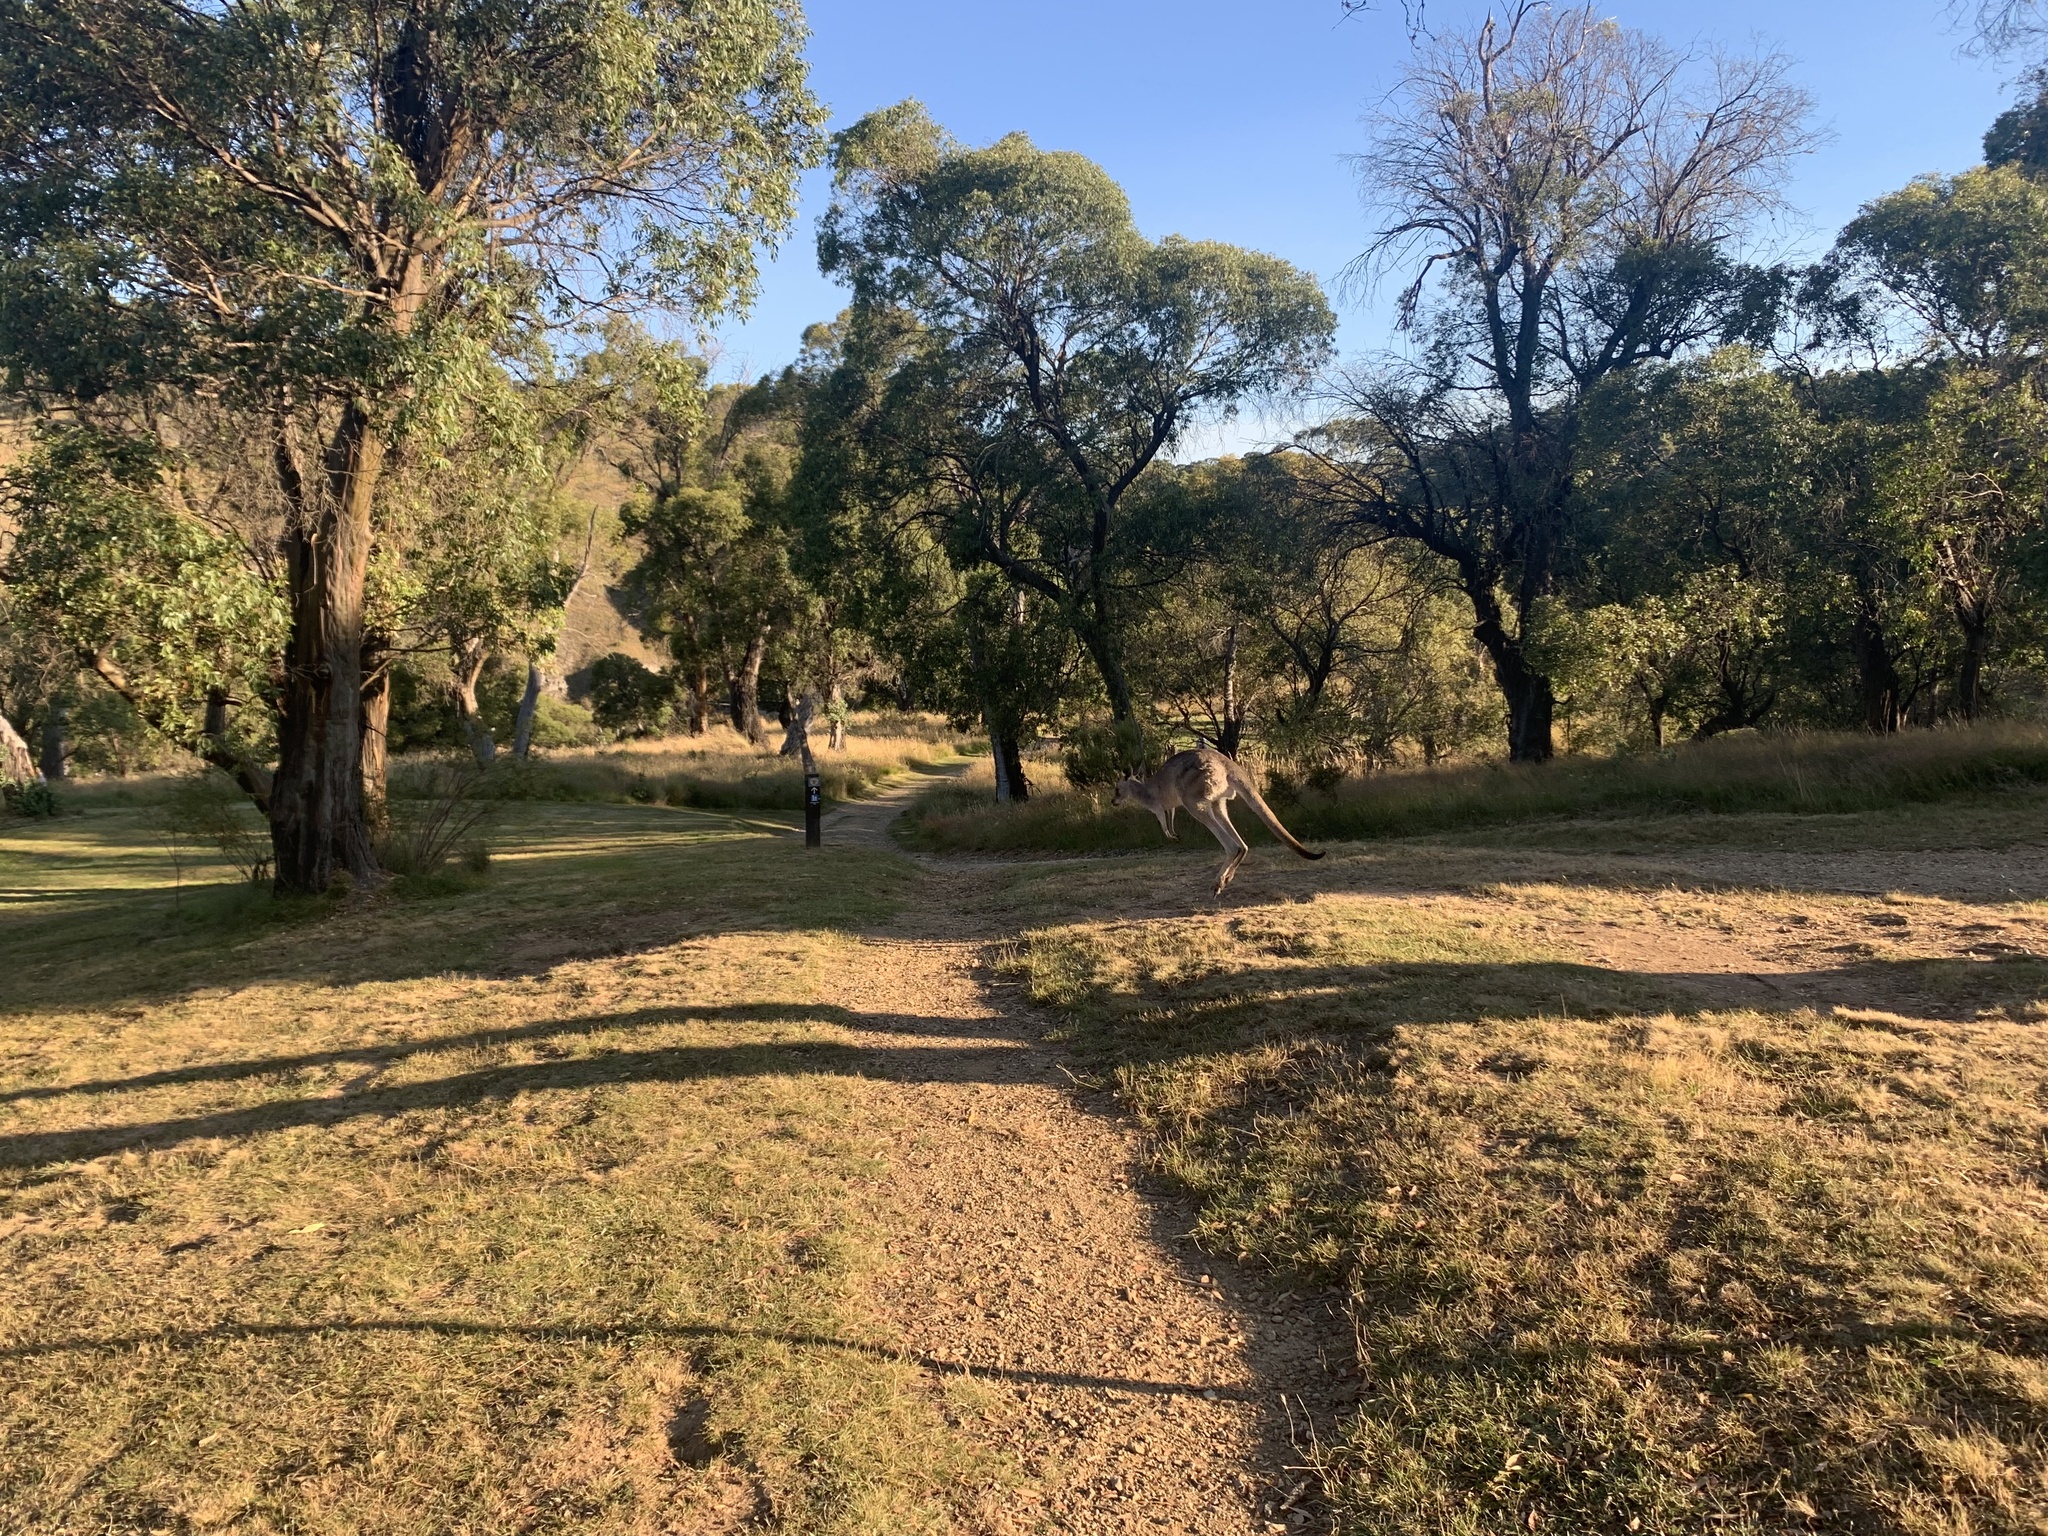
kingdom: Animalia
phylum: Chordata
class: Mammalia
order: Diprotodontia
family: Macropodidae
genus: Macropus
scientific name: Macropus giganteus
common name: Eastern grey kangaroo
